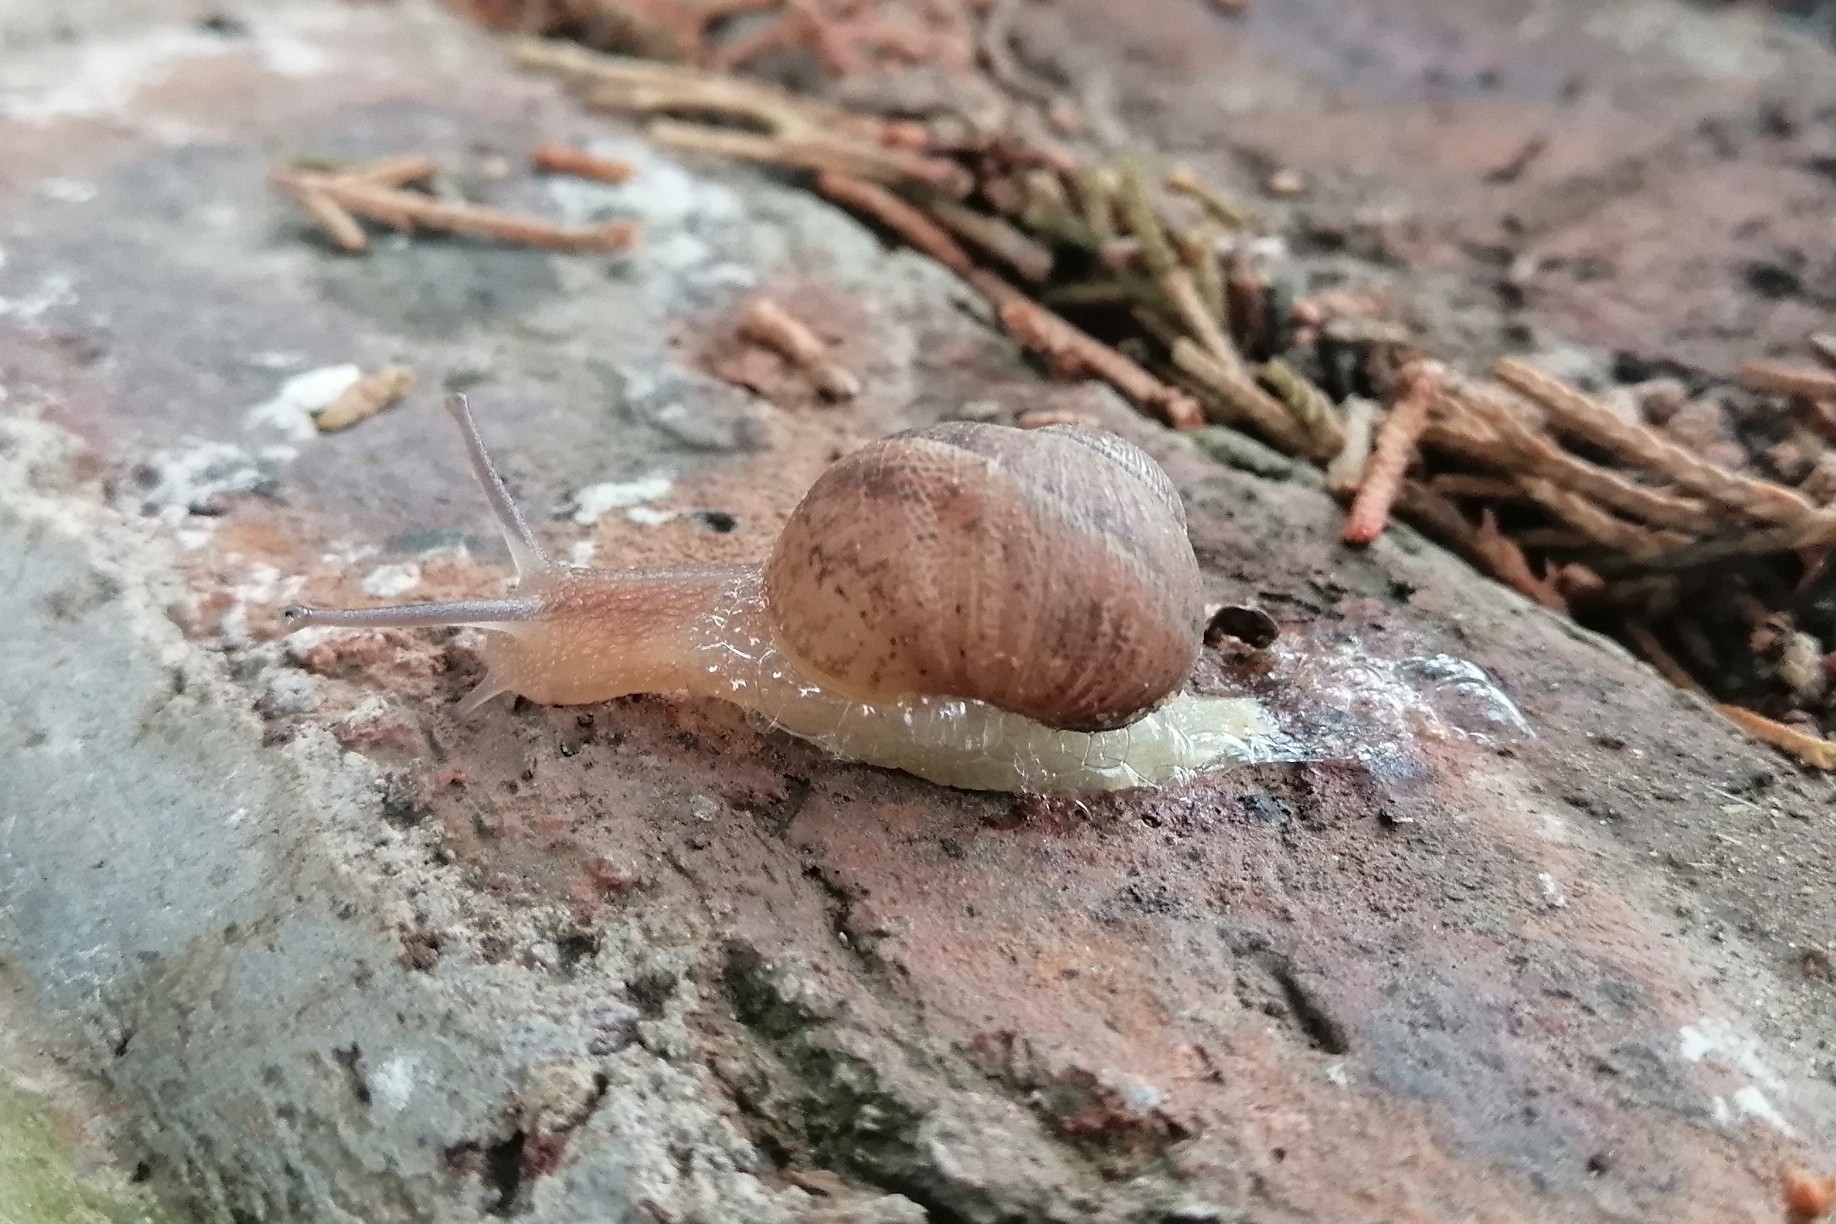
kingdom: Animalia
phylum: Mollusca
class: Gastropoda
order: Stylommatophora
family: Helicidae
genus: Cornu
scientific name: Cornu aspersum
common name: Brown garden snail
